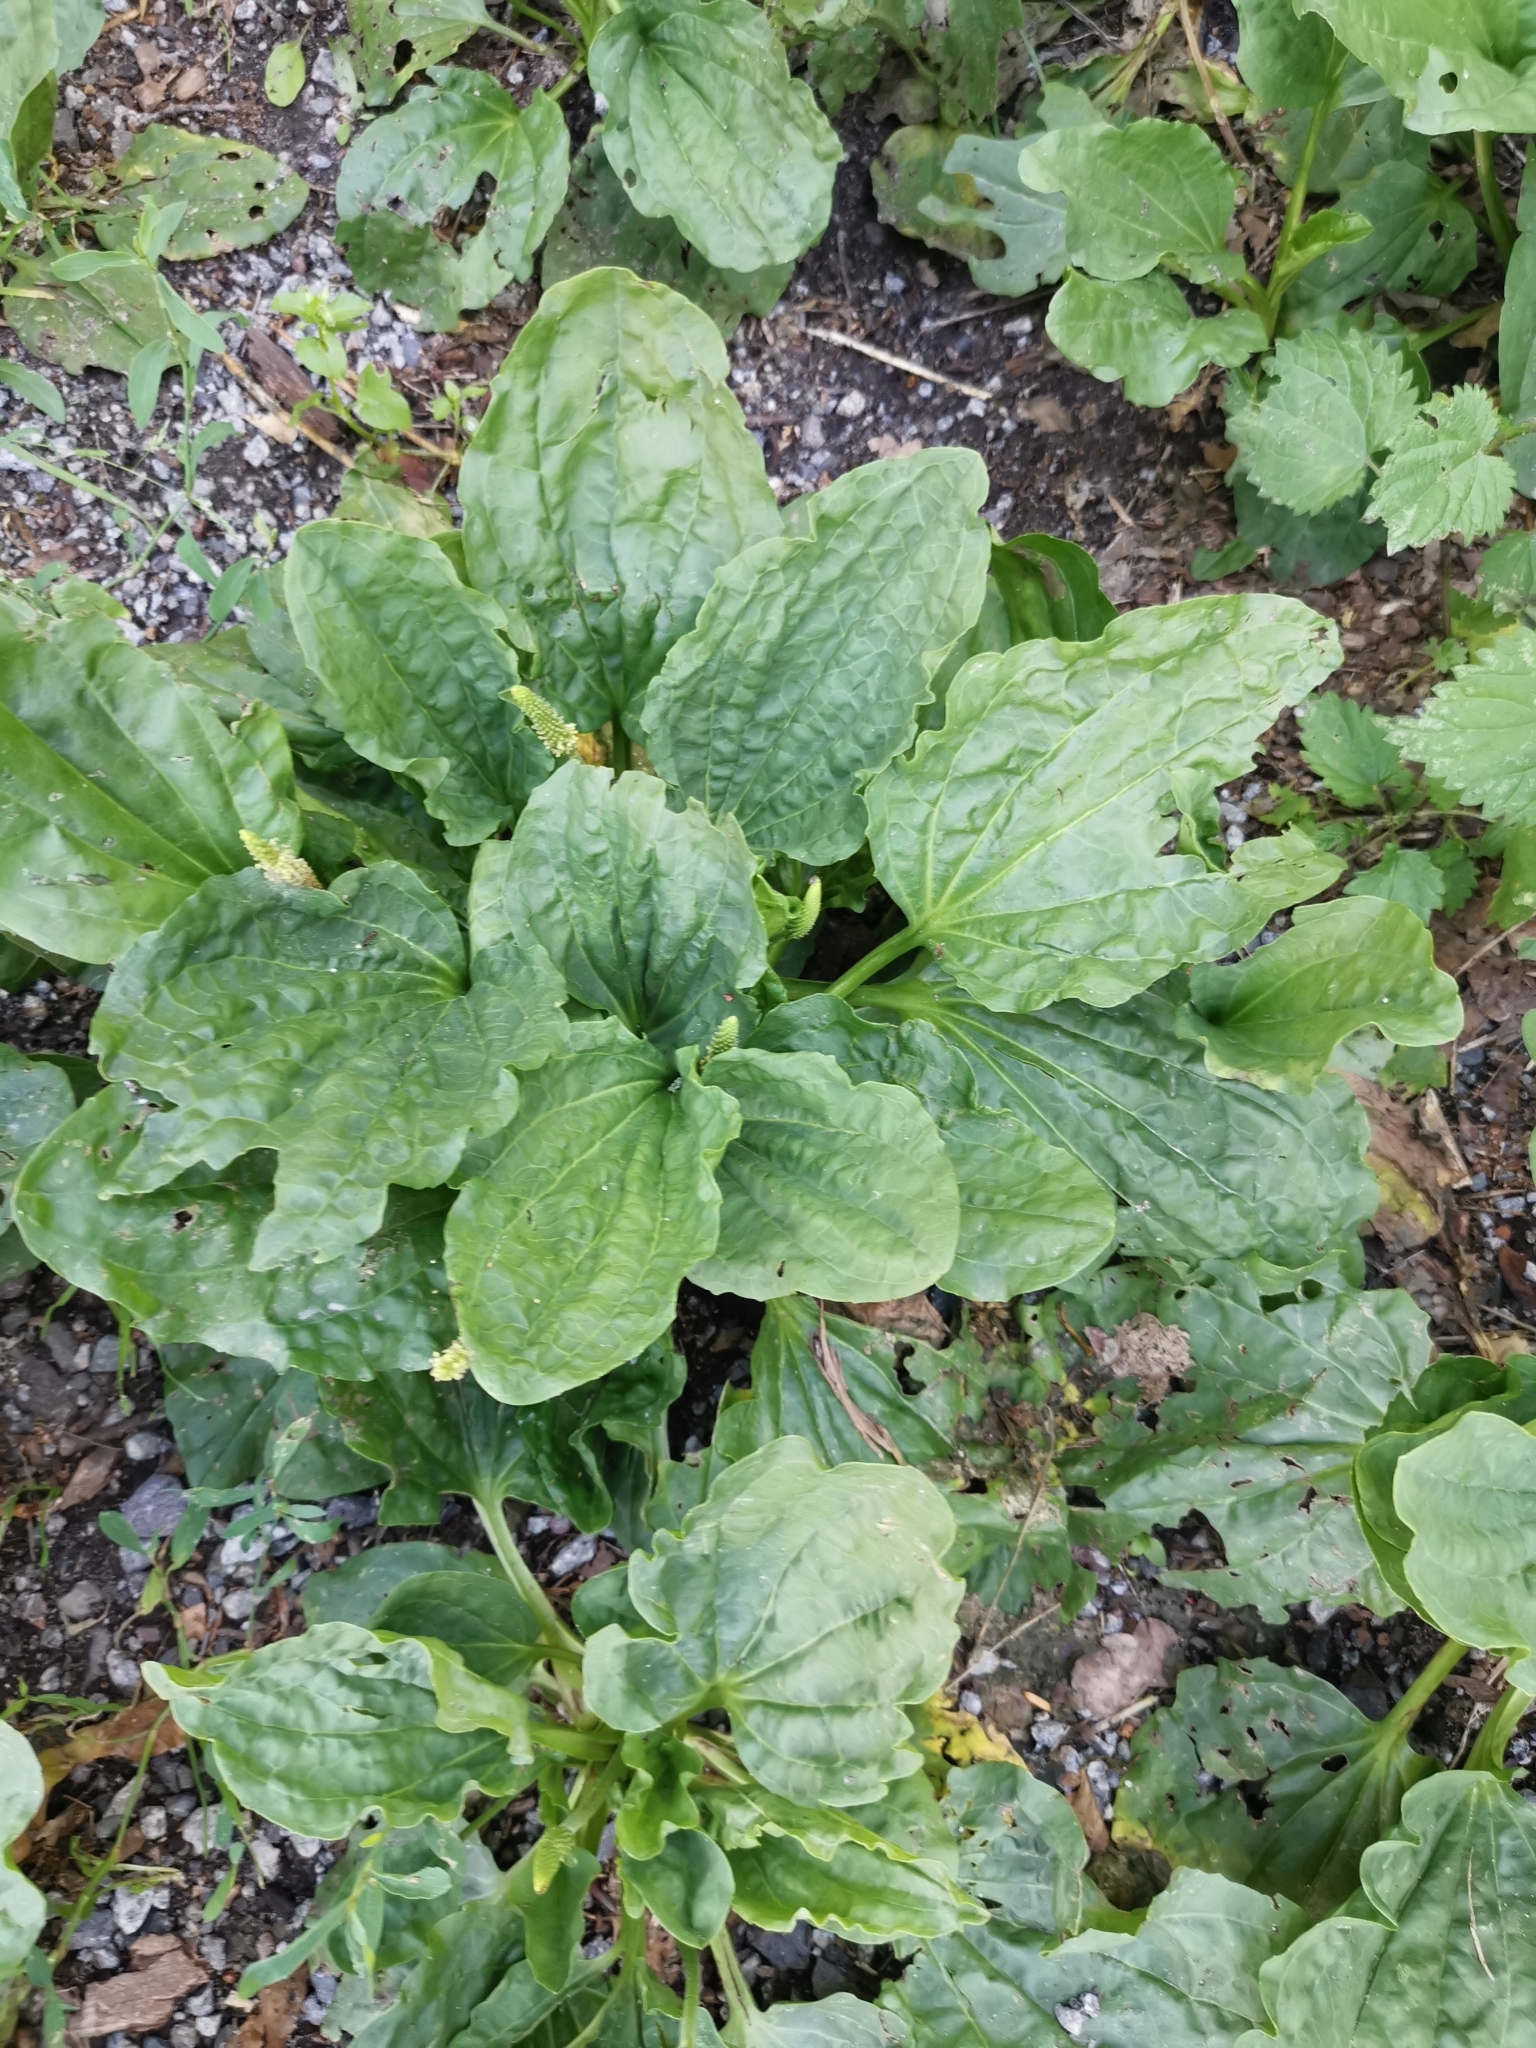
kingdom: Plantae
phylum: Tracheophyta
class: Magnoliopsida
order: Lamiales
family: Plantaginaceae
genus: Plantago
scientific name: Plantago major
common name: Common plantain
